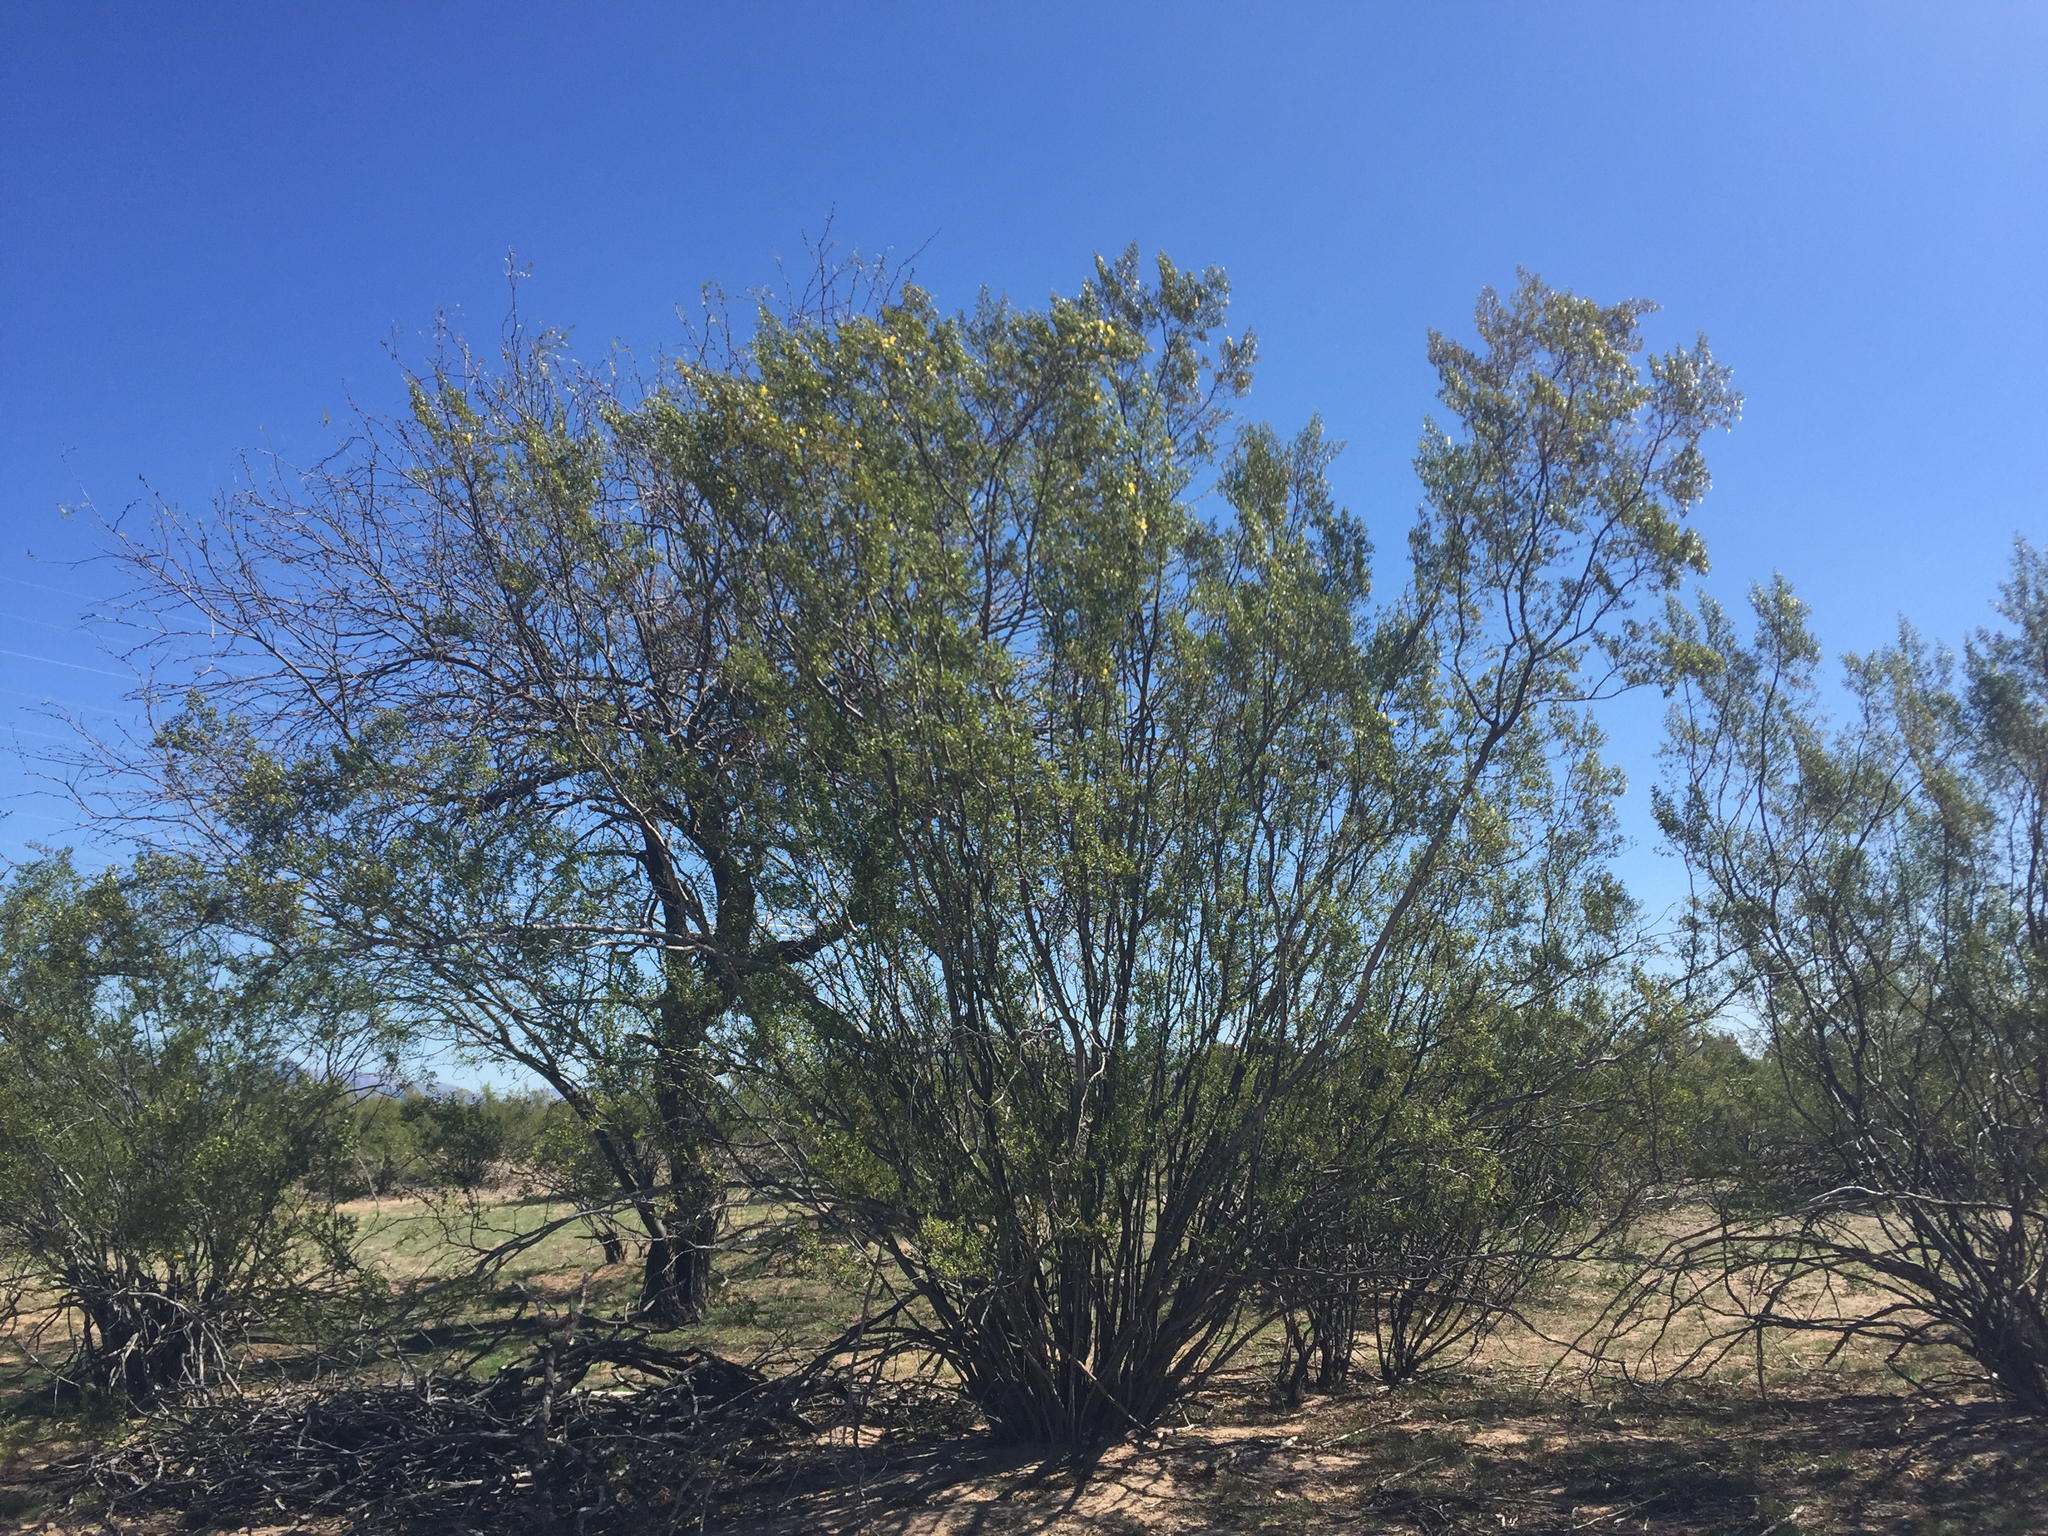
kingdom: Plantae
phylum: Tracheophyta
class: Magnoliopsida
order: Zygophyllales
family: Zygophyllaceae
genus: Larrea
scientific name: Larrea tridentata
